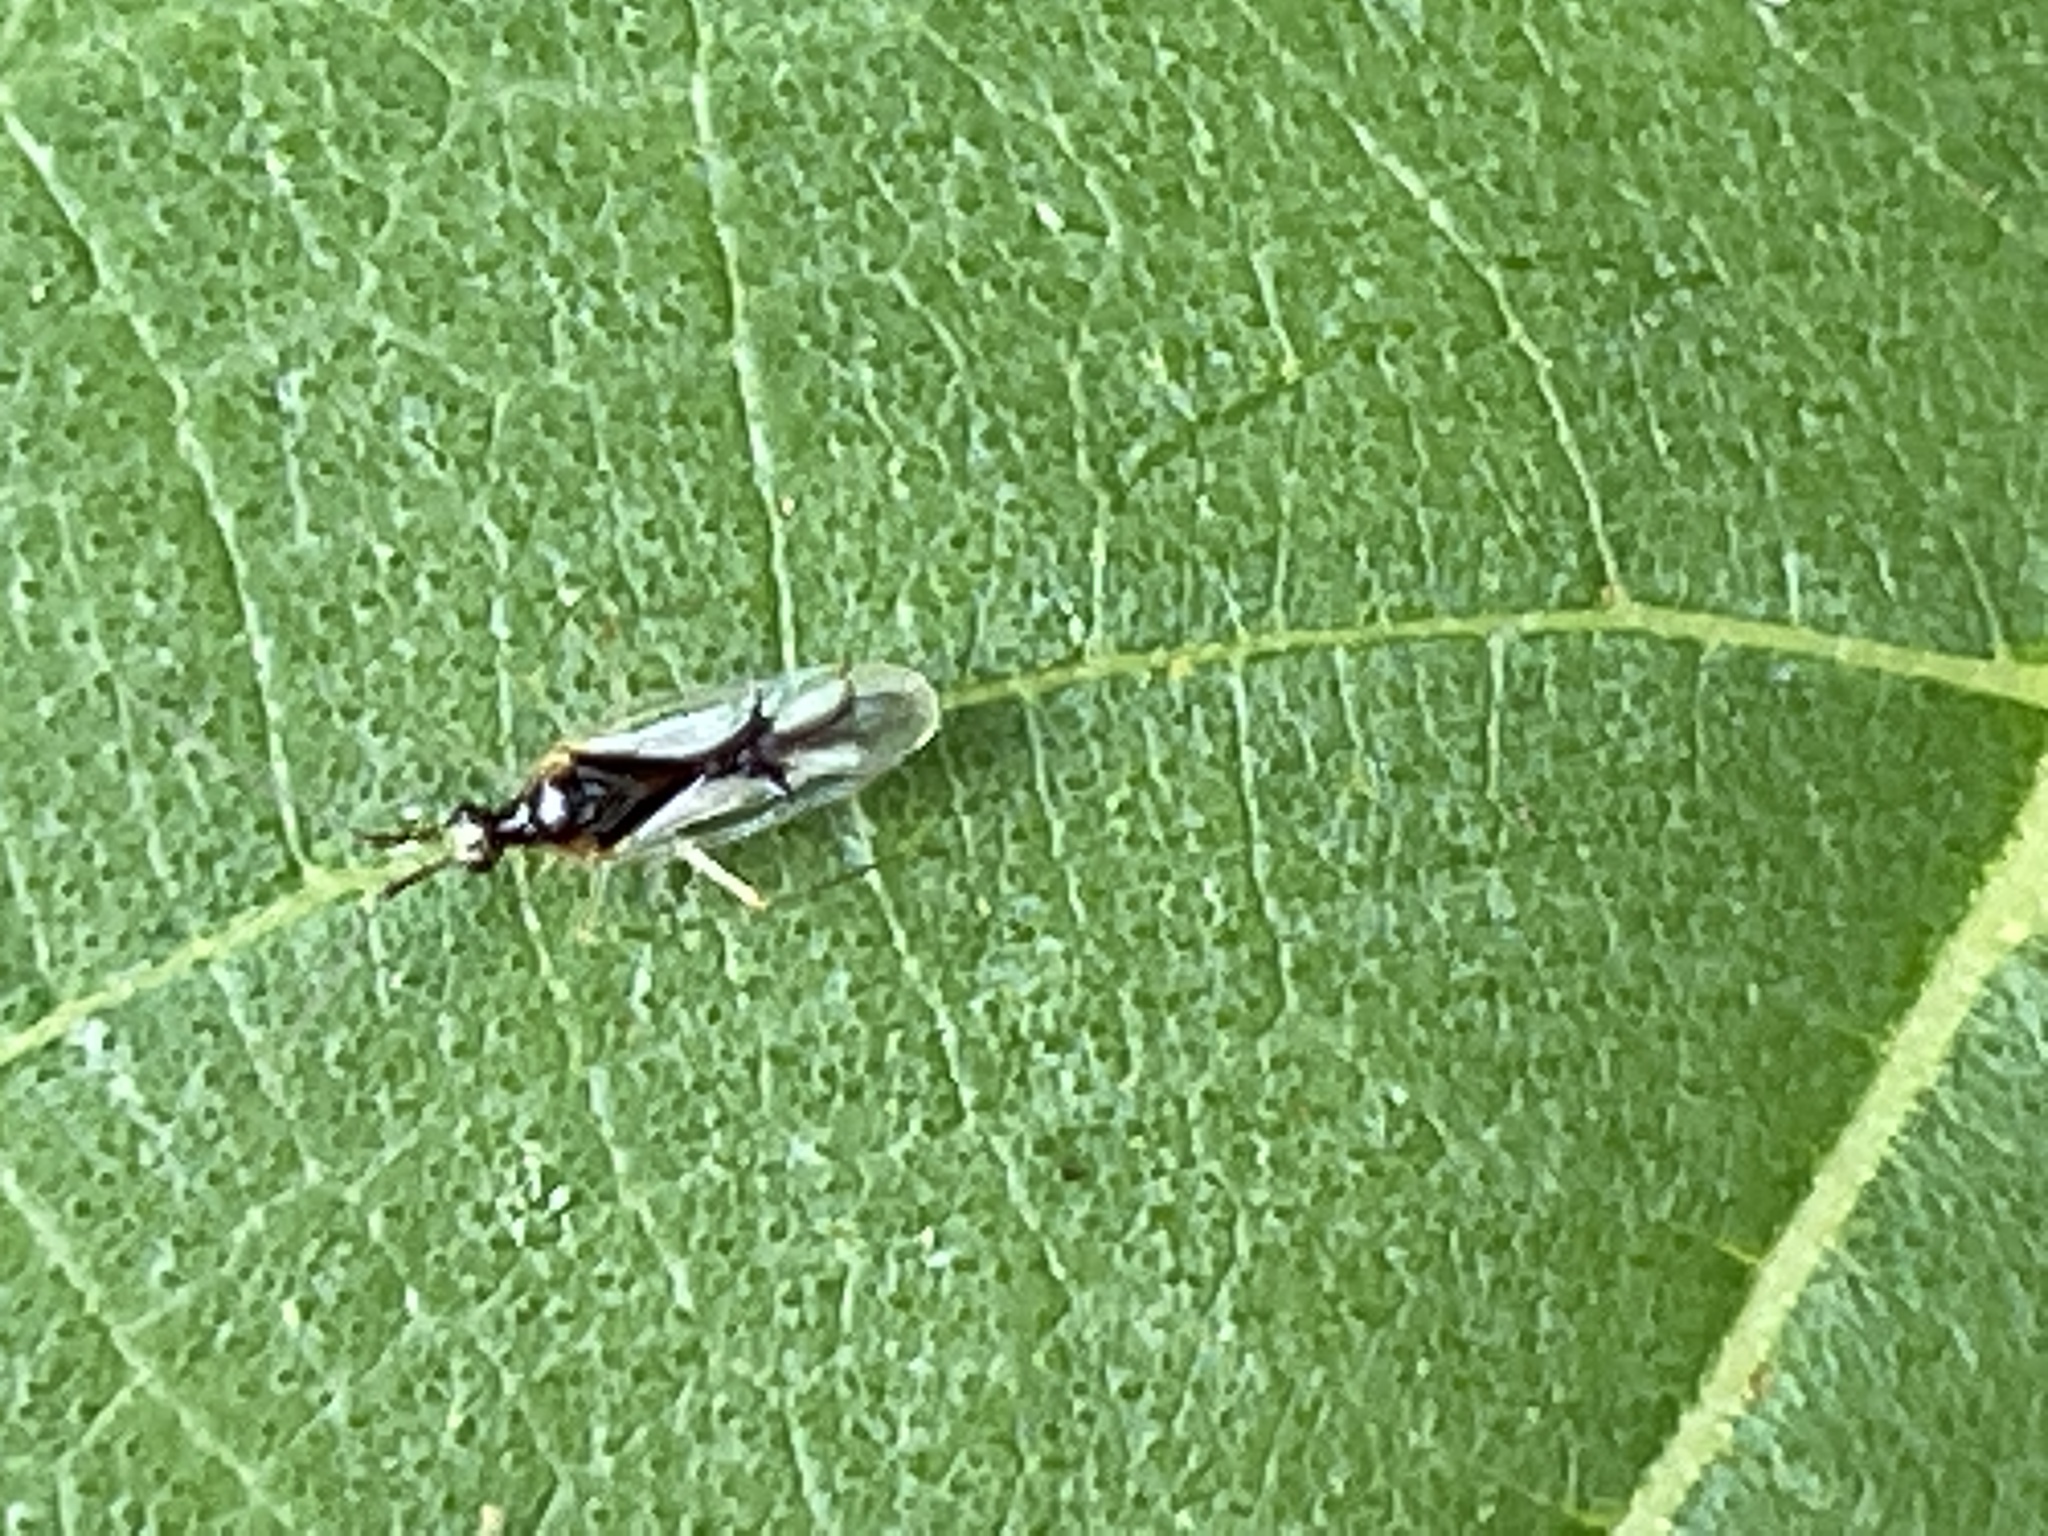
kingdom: Animalia
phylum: Arthropoda
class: Insecta
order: Hemiptera
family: Miridae
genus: Hyaliodes
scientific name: Hyaliodes vitripennis
